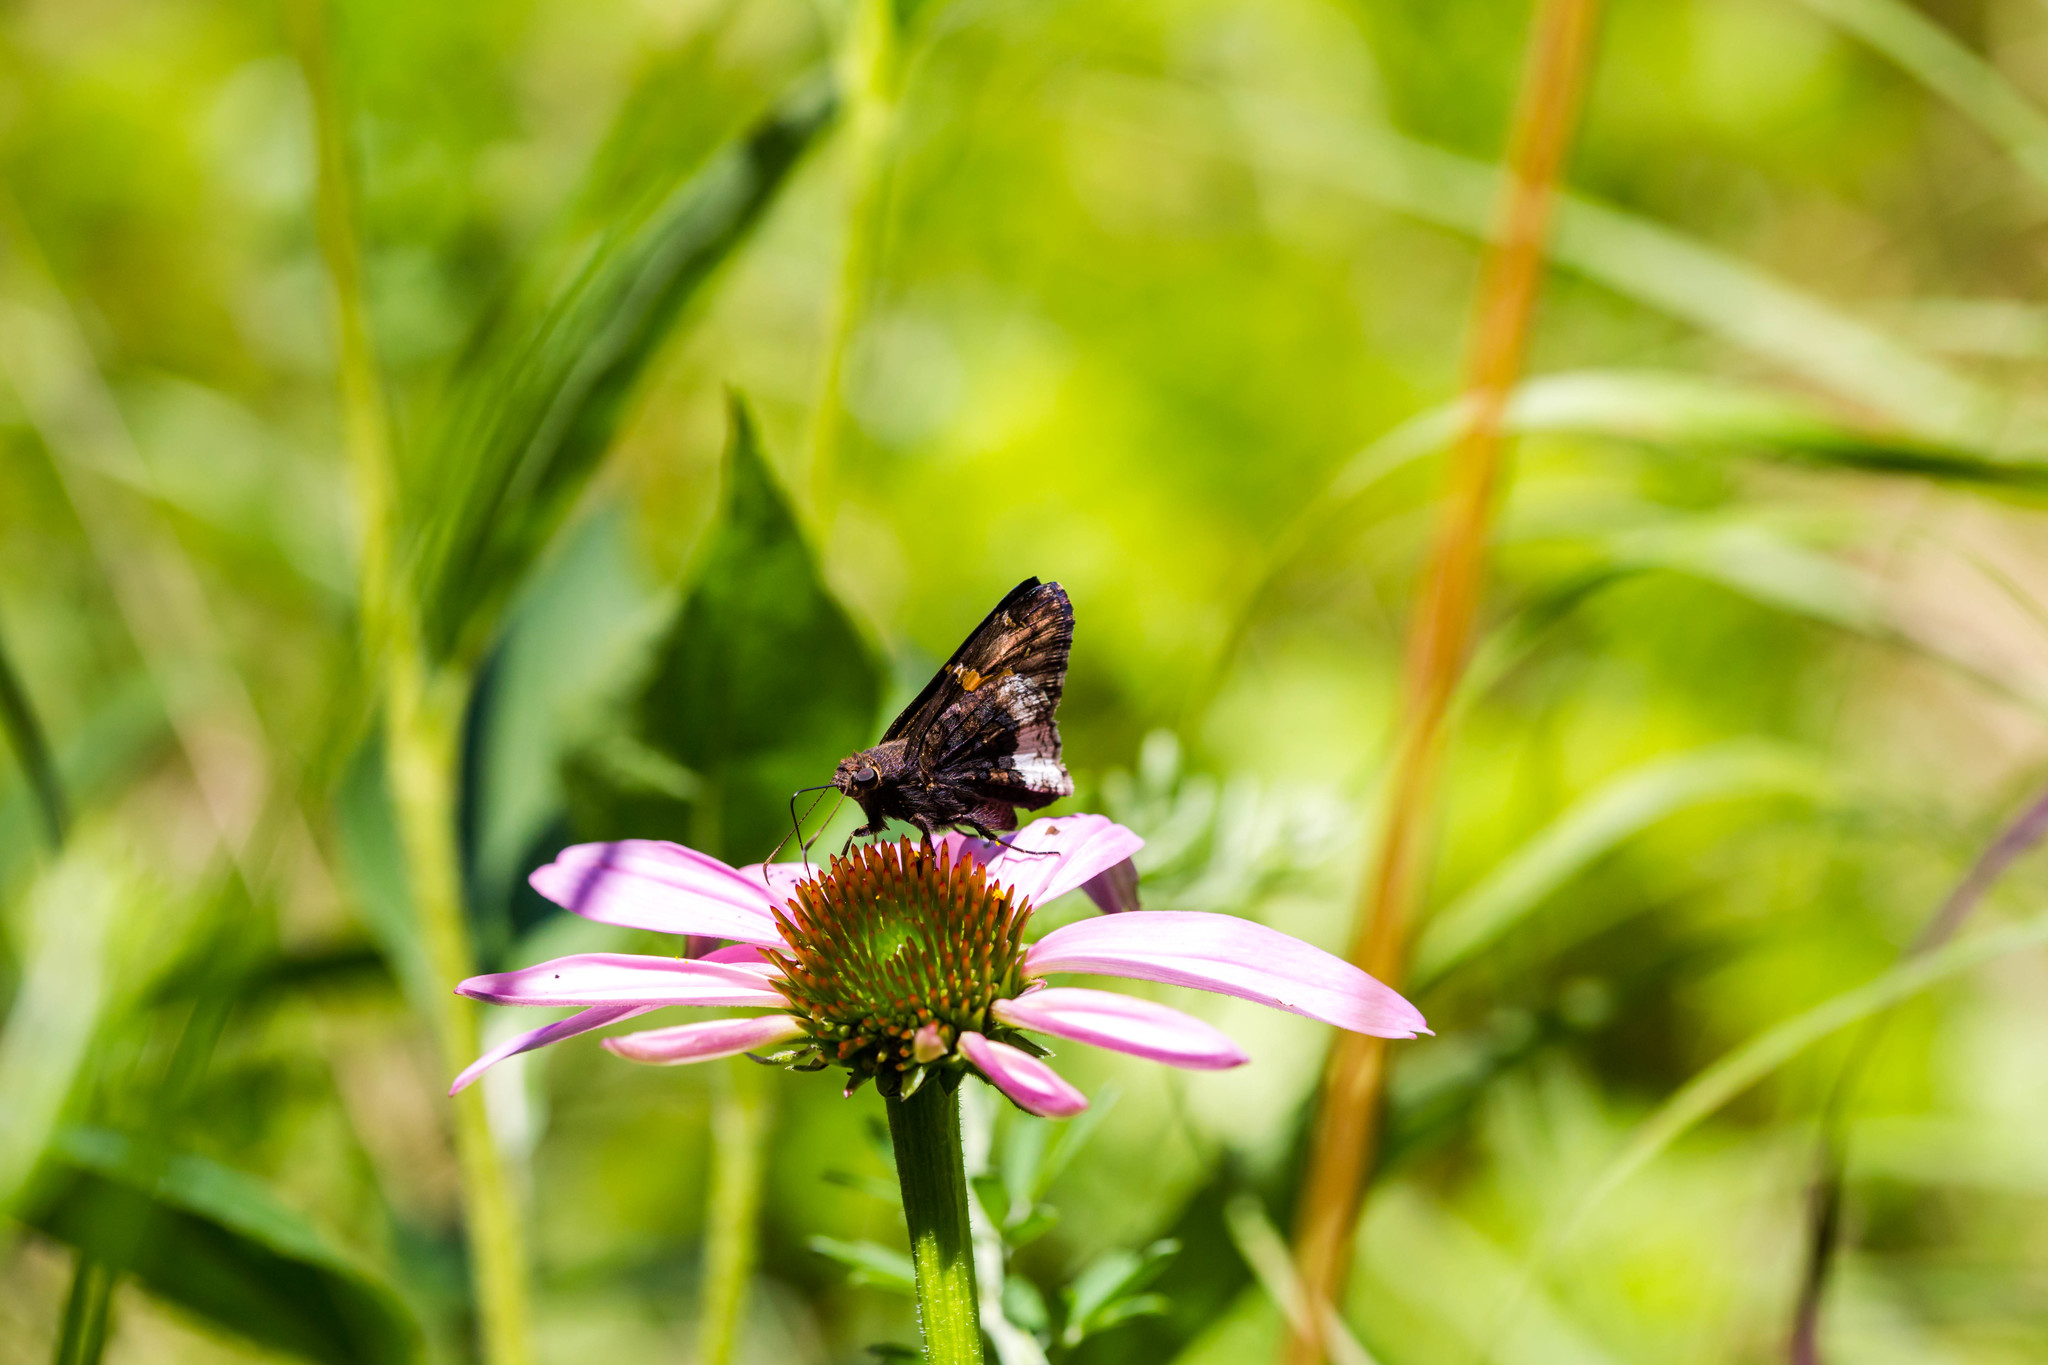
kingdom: Animalia
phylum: Arthropoda
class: Insecta
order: Lepidoptera
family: Hesperiidae
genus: Thorybes
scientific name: Thorybes lyciades
